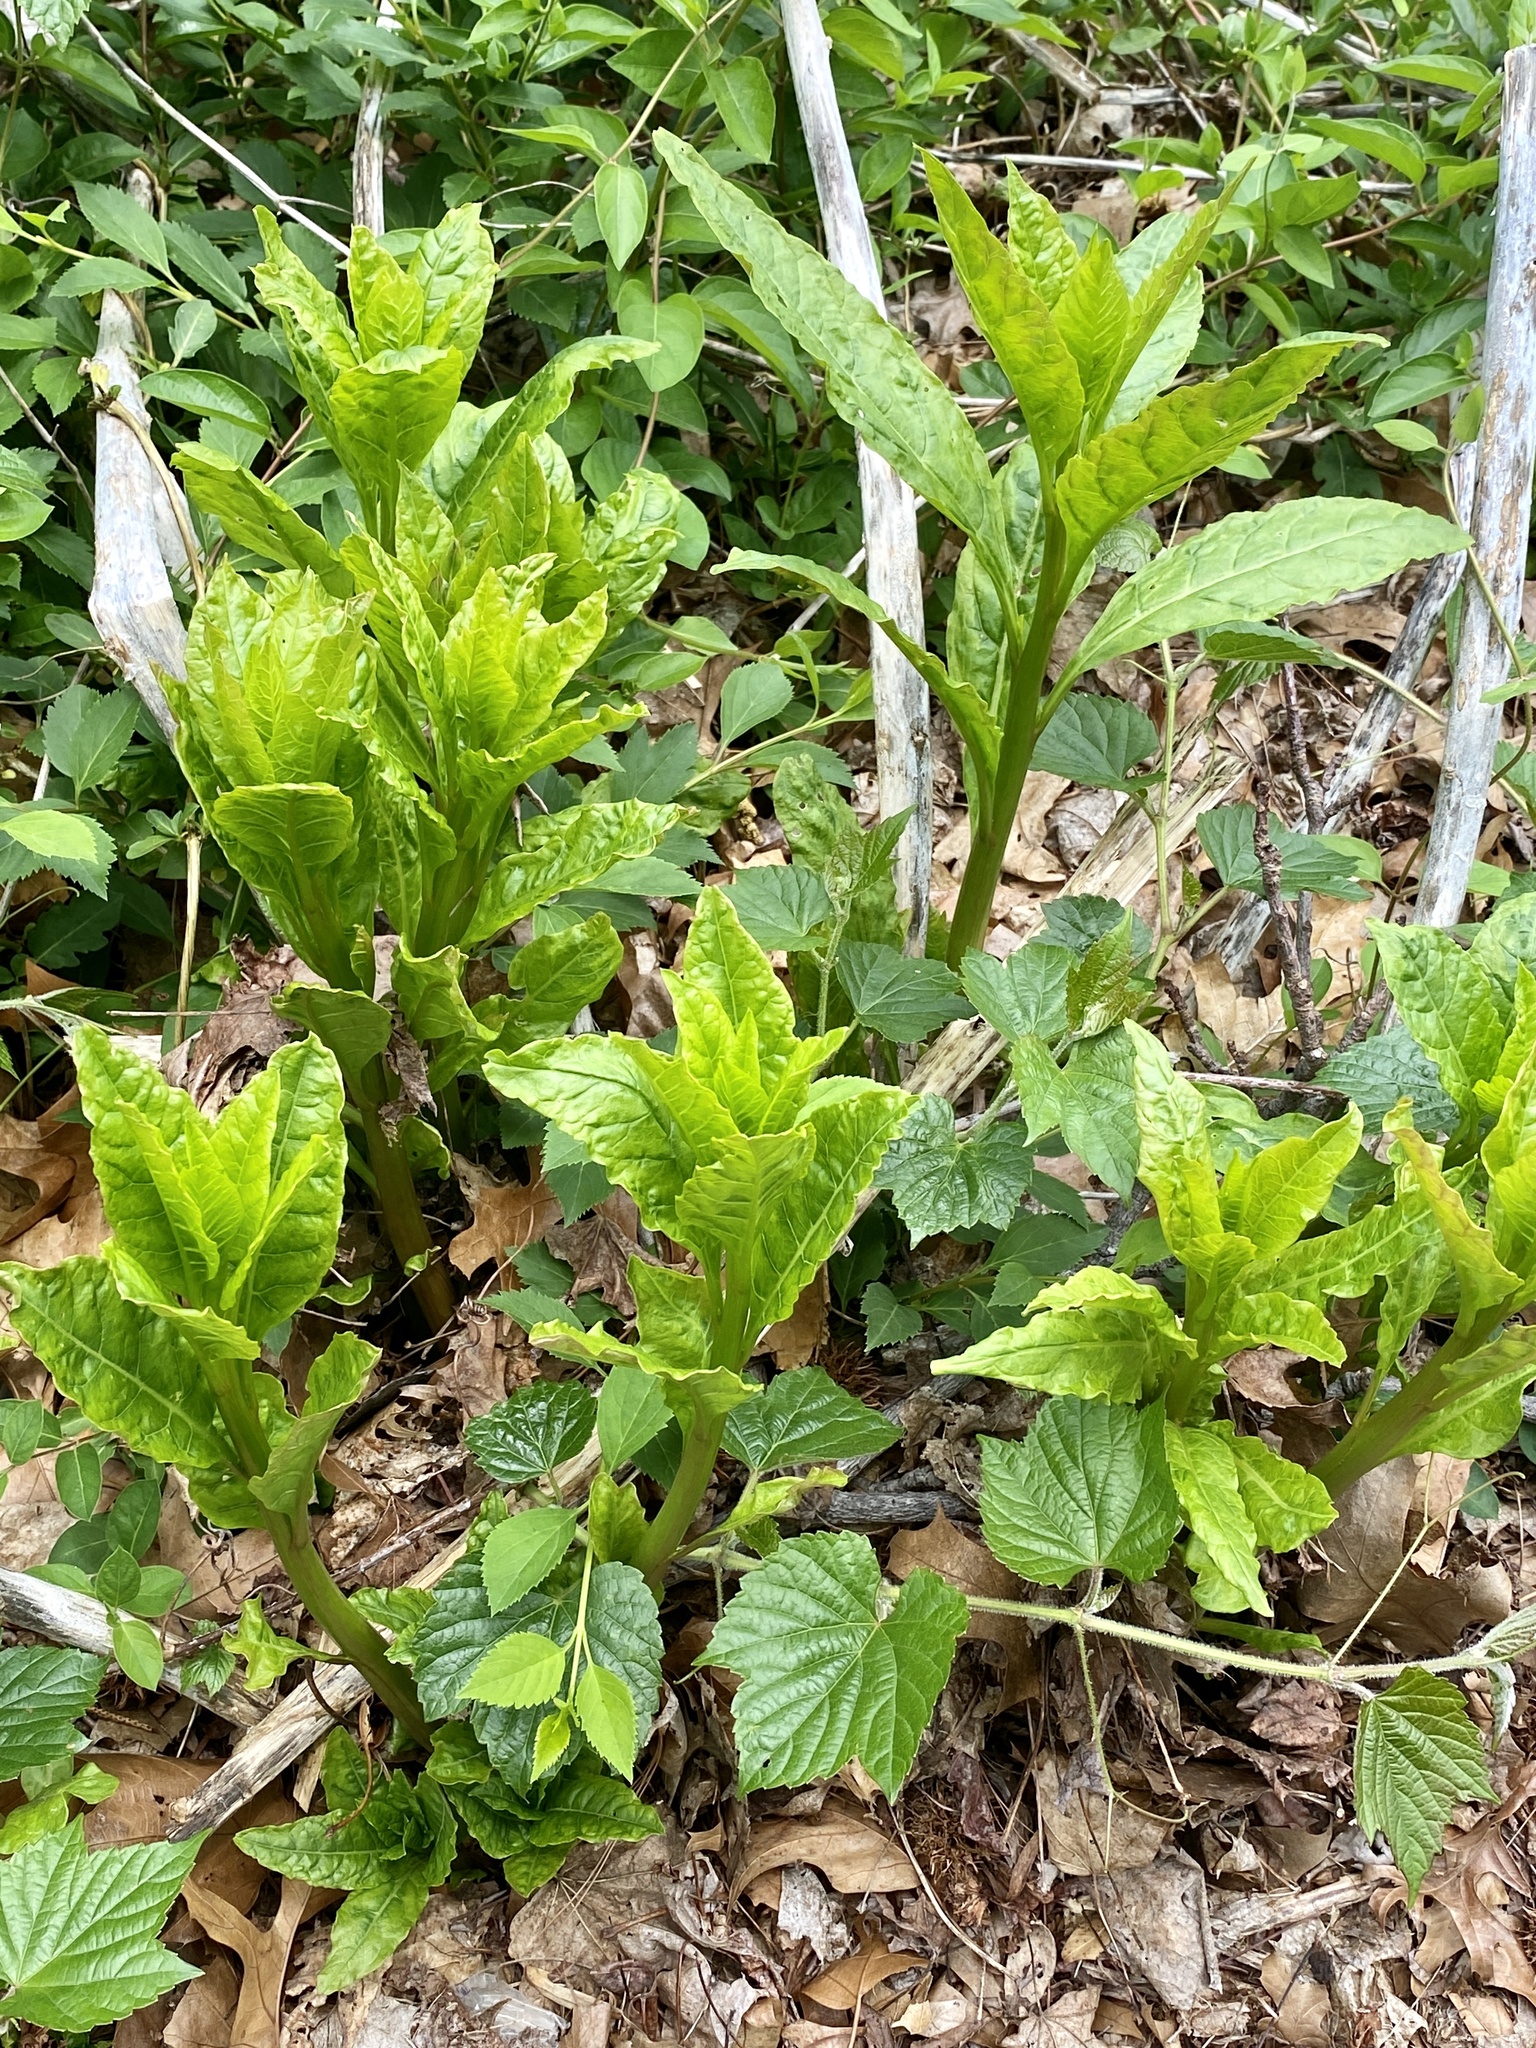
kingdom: Plantae
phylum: Tracheophyta
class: Magnoliopsida
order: Caryophyllales
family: Phytolaccaceae
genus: Phytolacca
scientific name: Phytolacca americana
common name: American pokeweed
